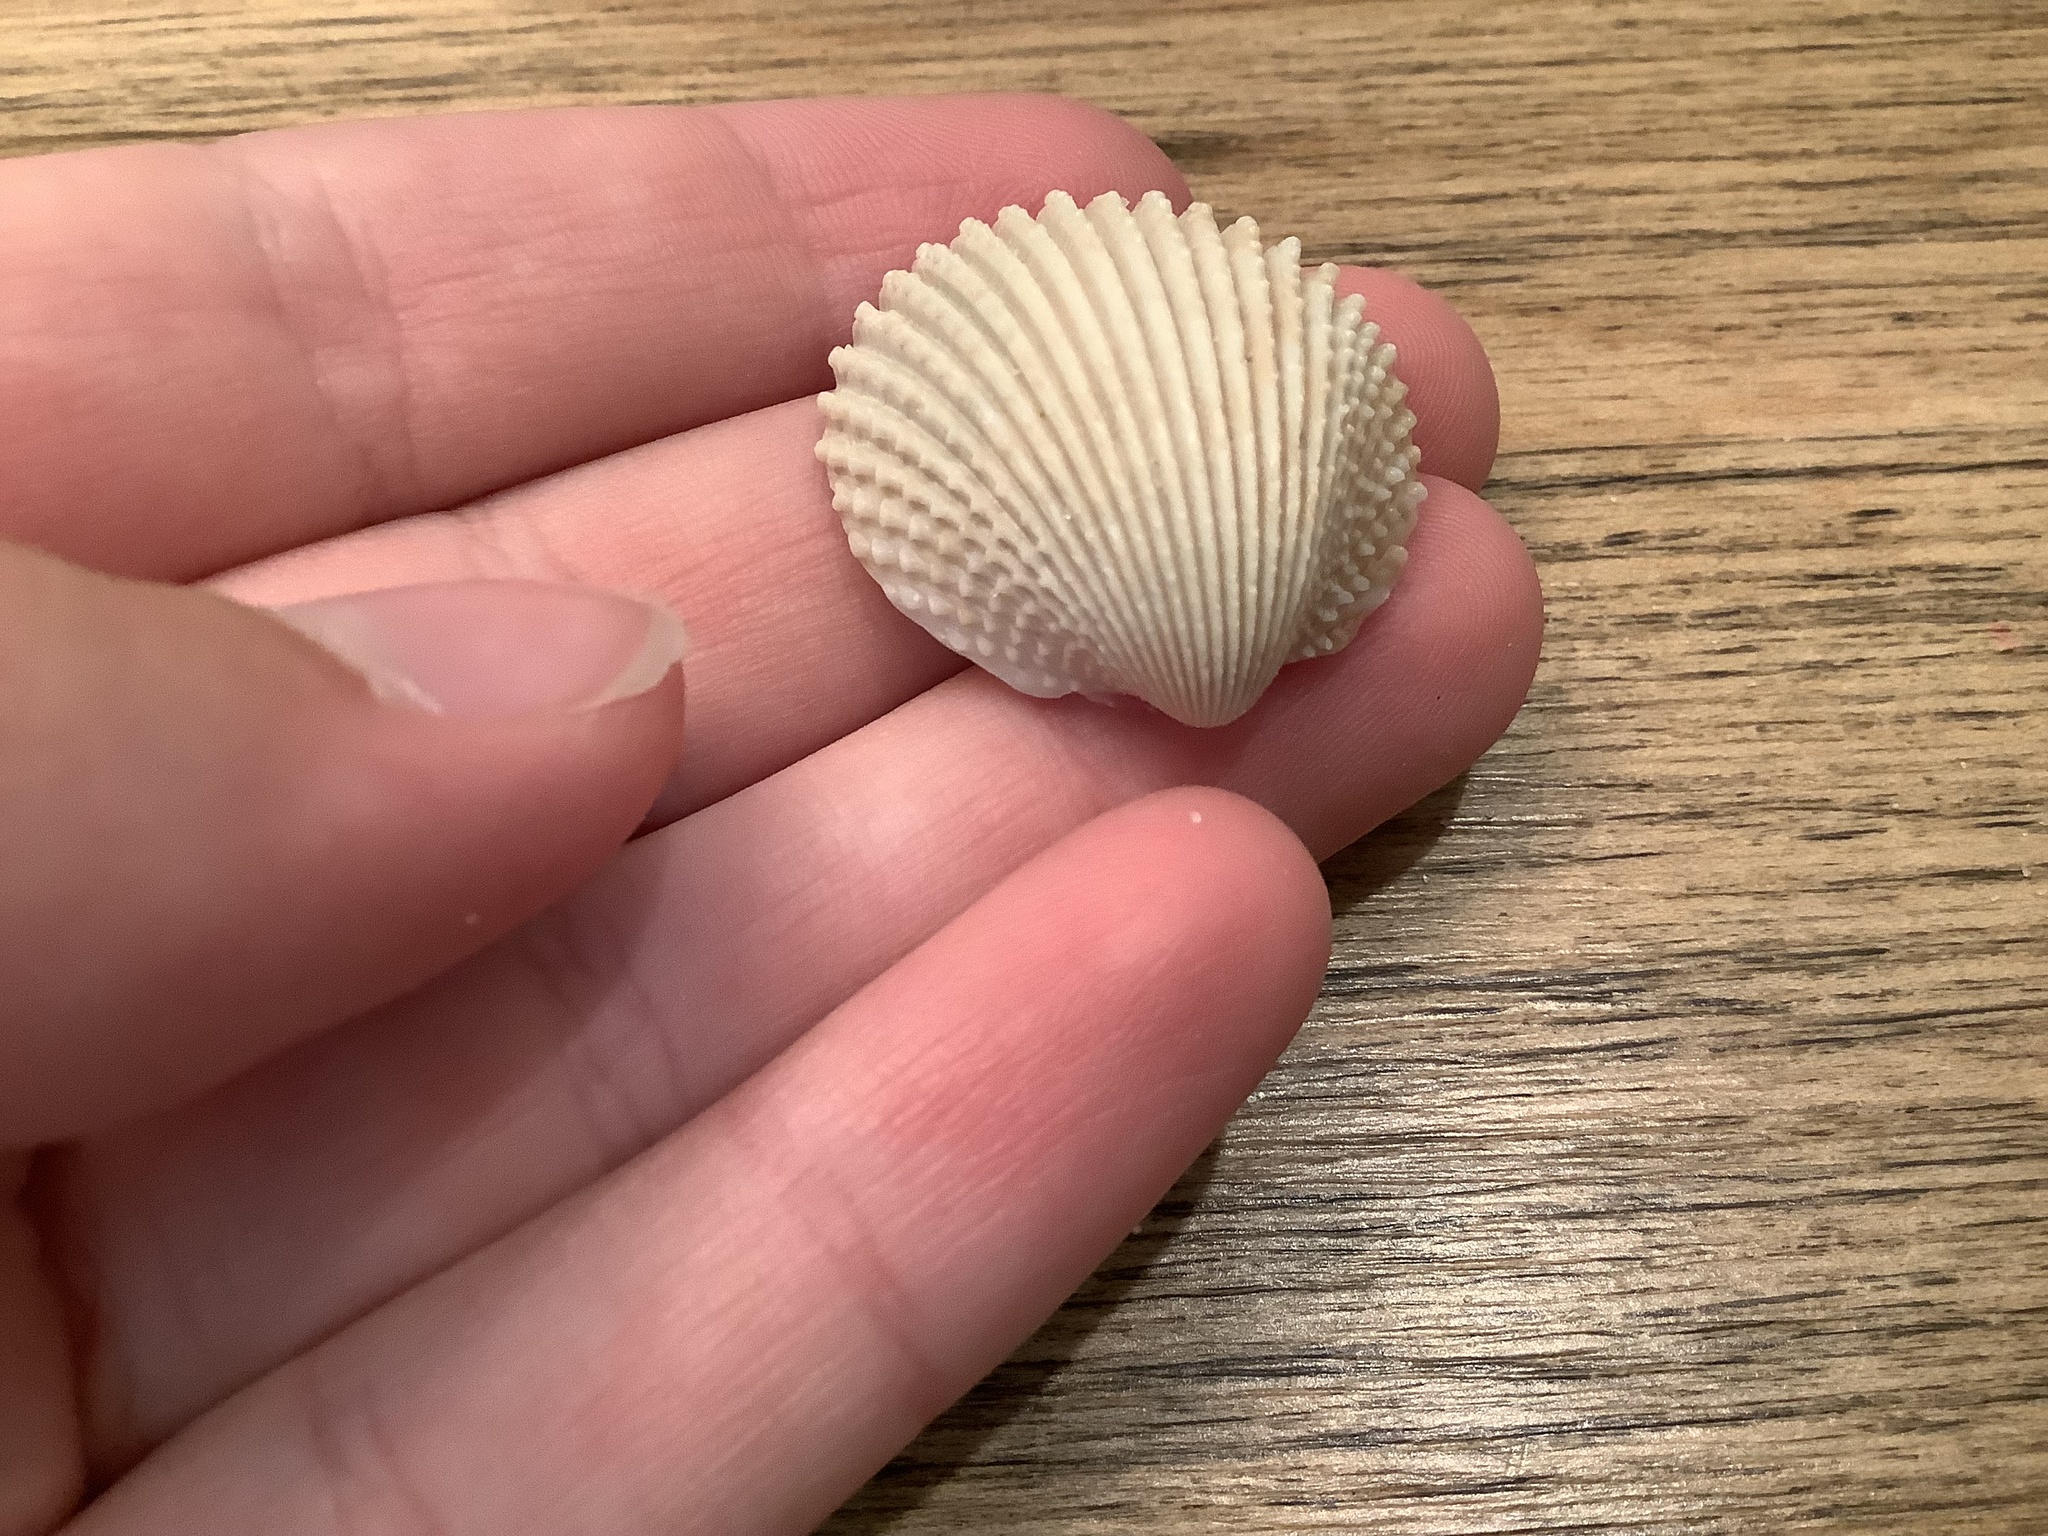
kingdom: Animalia
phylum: Mollusca
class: Bivalvia
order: Cardiida
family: Cardiidae
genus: Trachycardium
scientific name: Trachycardium egmontianum
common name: Florida pricklycockle
